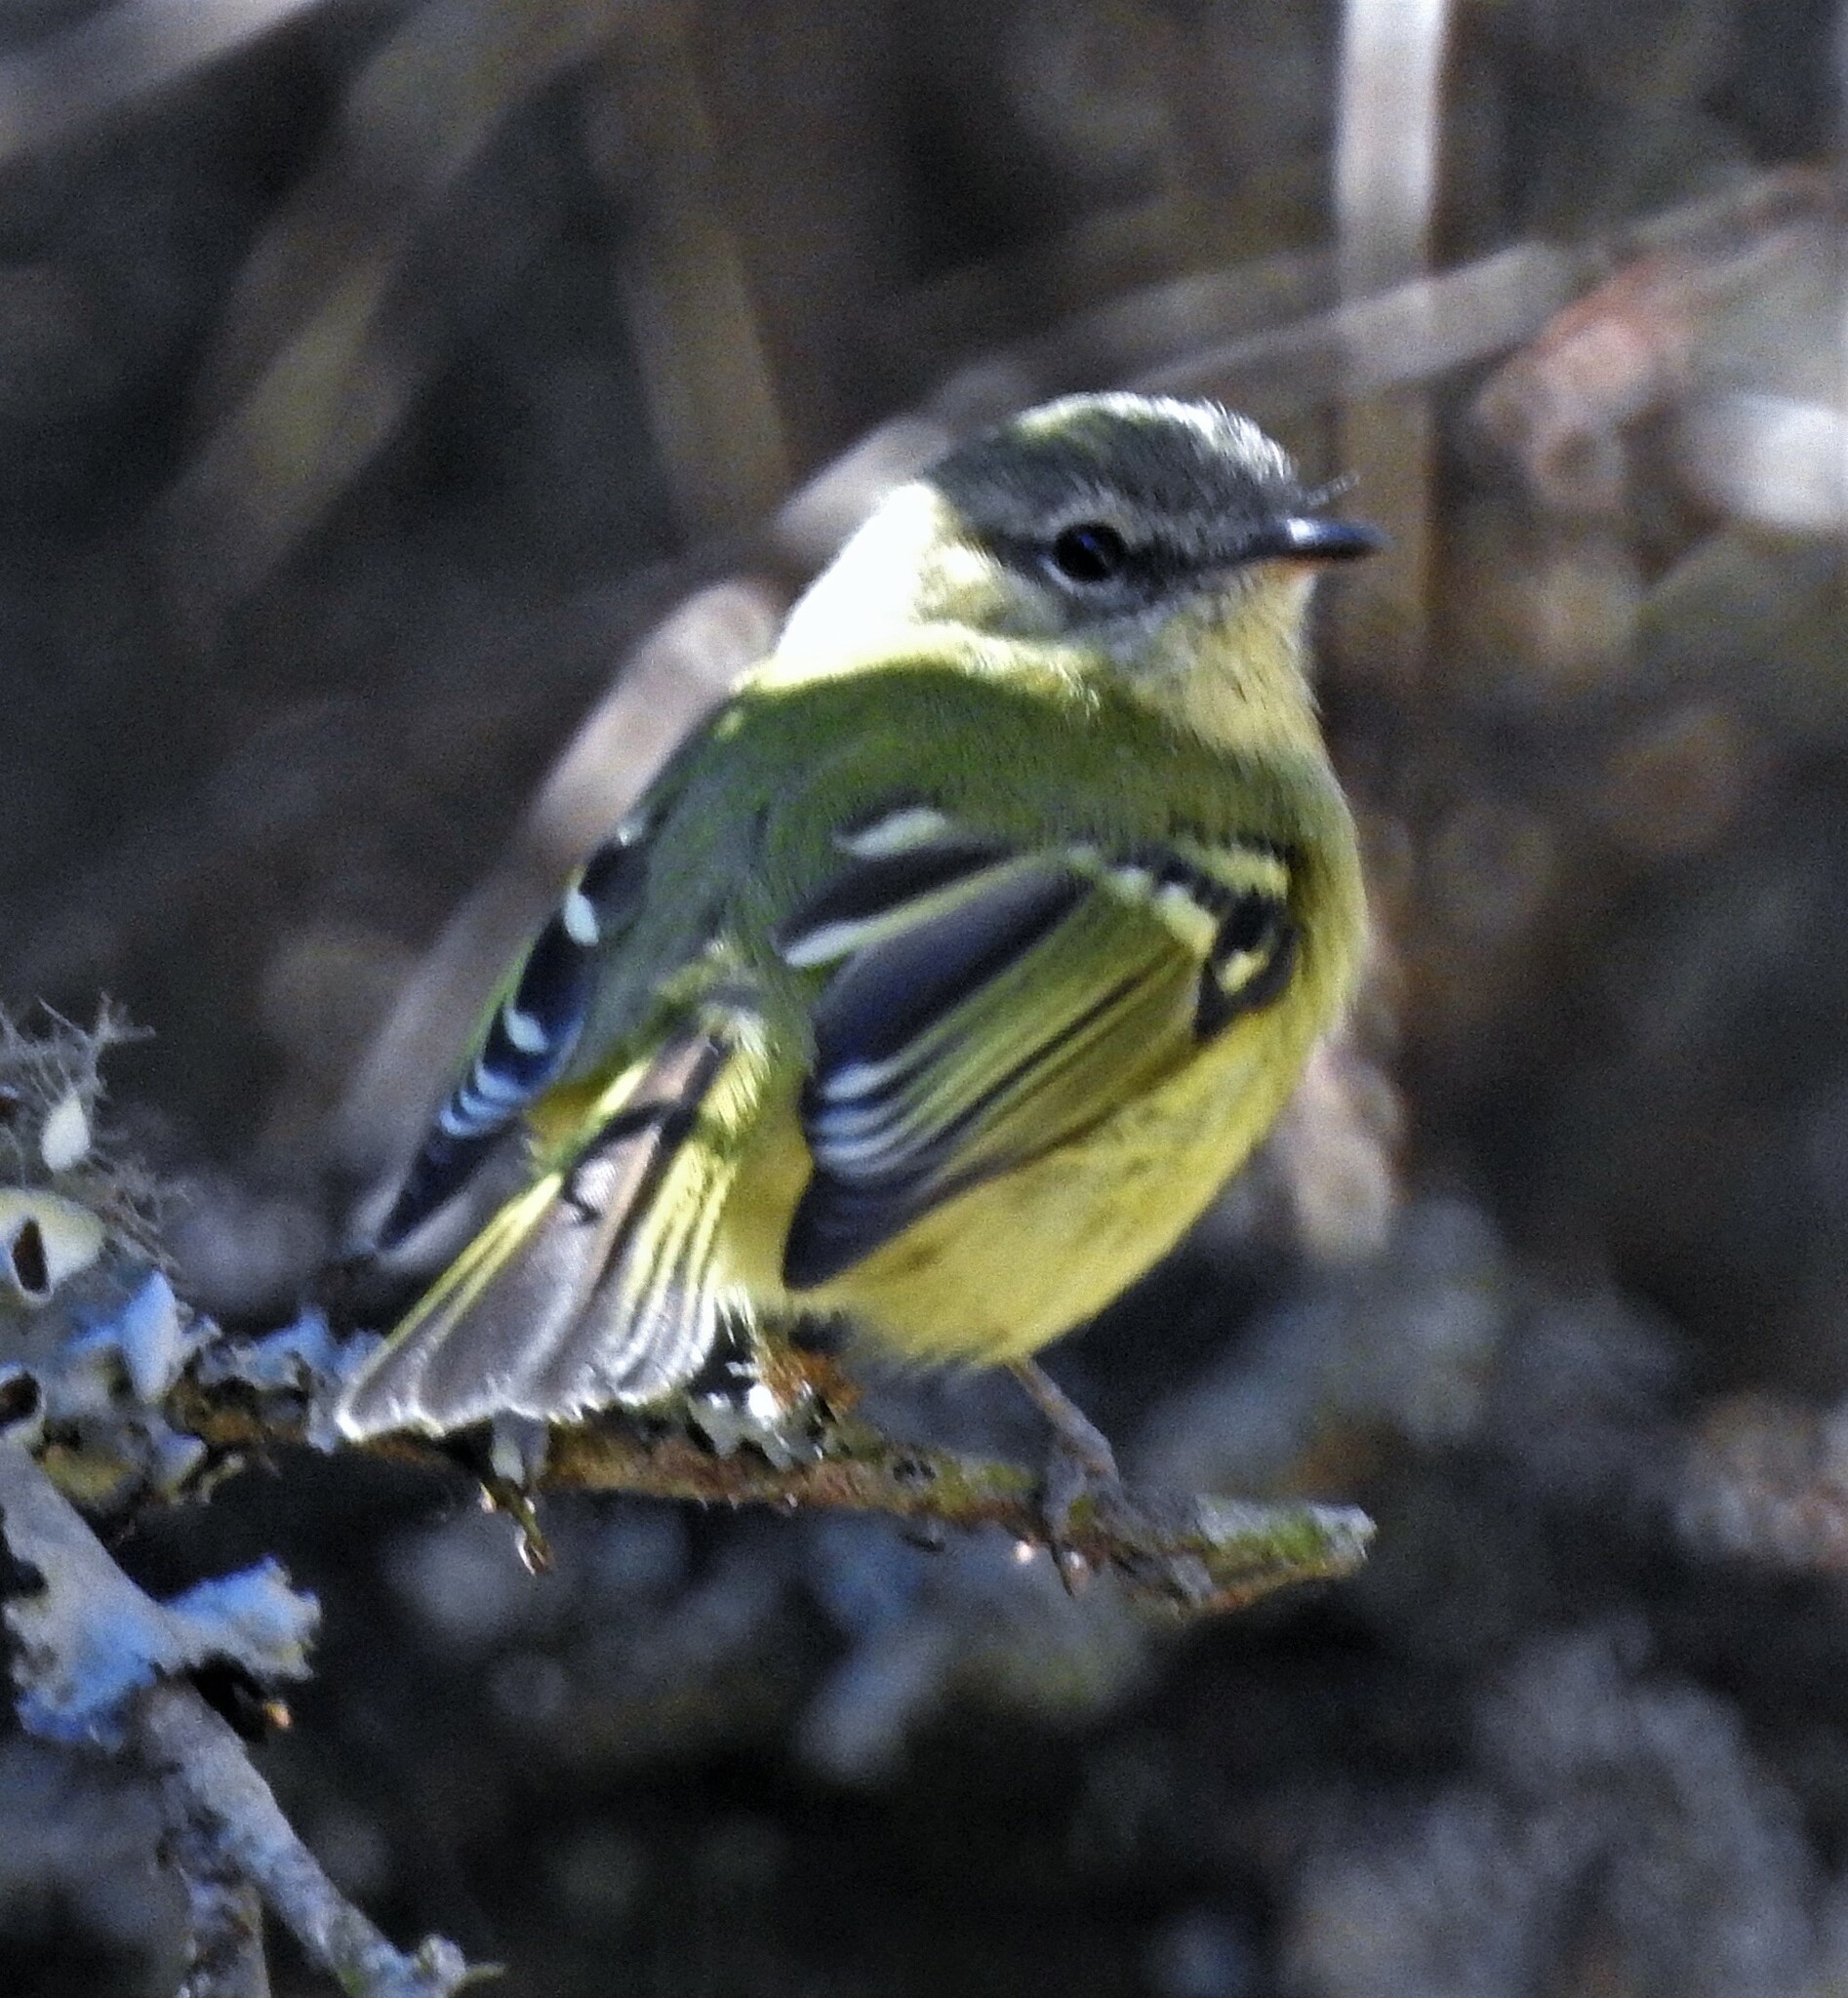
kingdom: Animalia
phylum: Chordata
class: Aves
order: Passeriformes
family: Tyrannidae
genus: Phylloscartes
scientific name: Phylloscartes ventralis
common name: Mottle-cheeked tyrannulet
